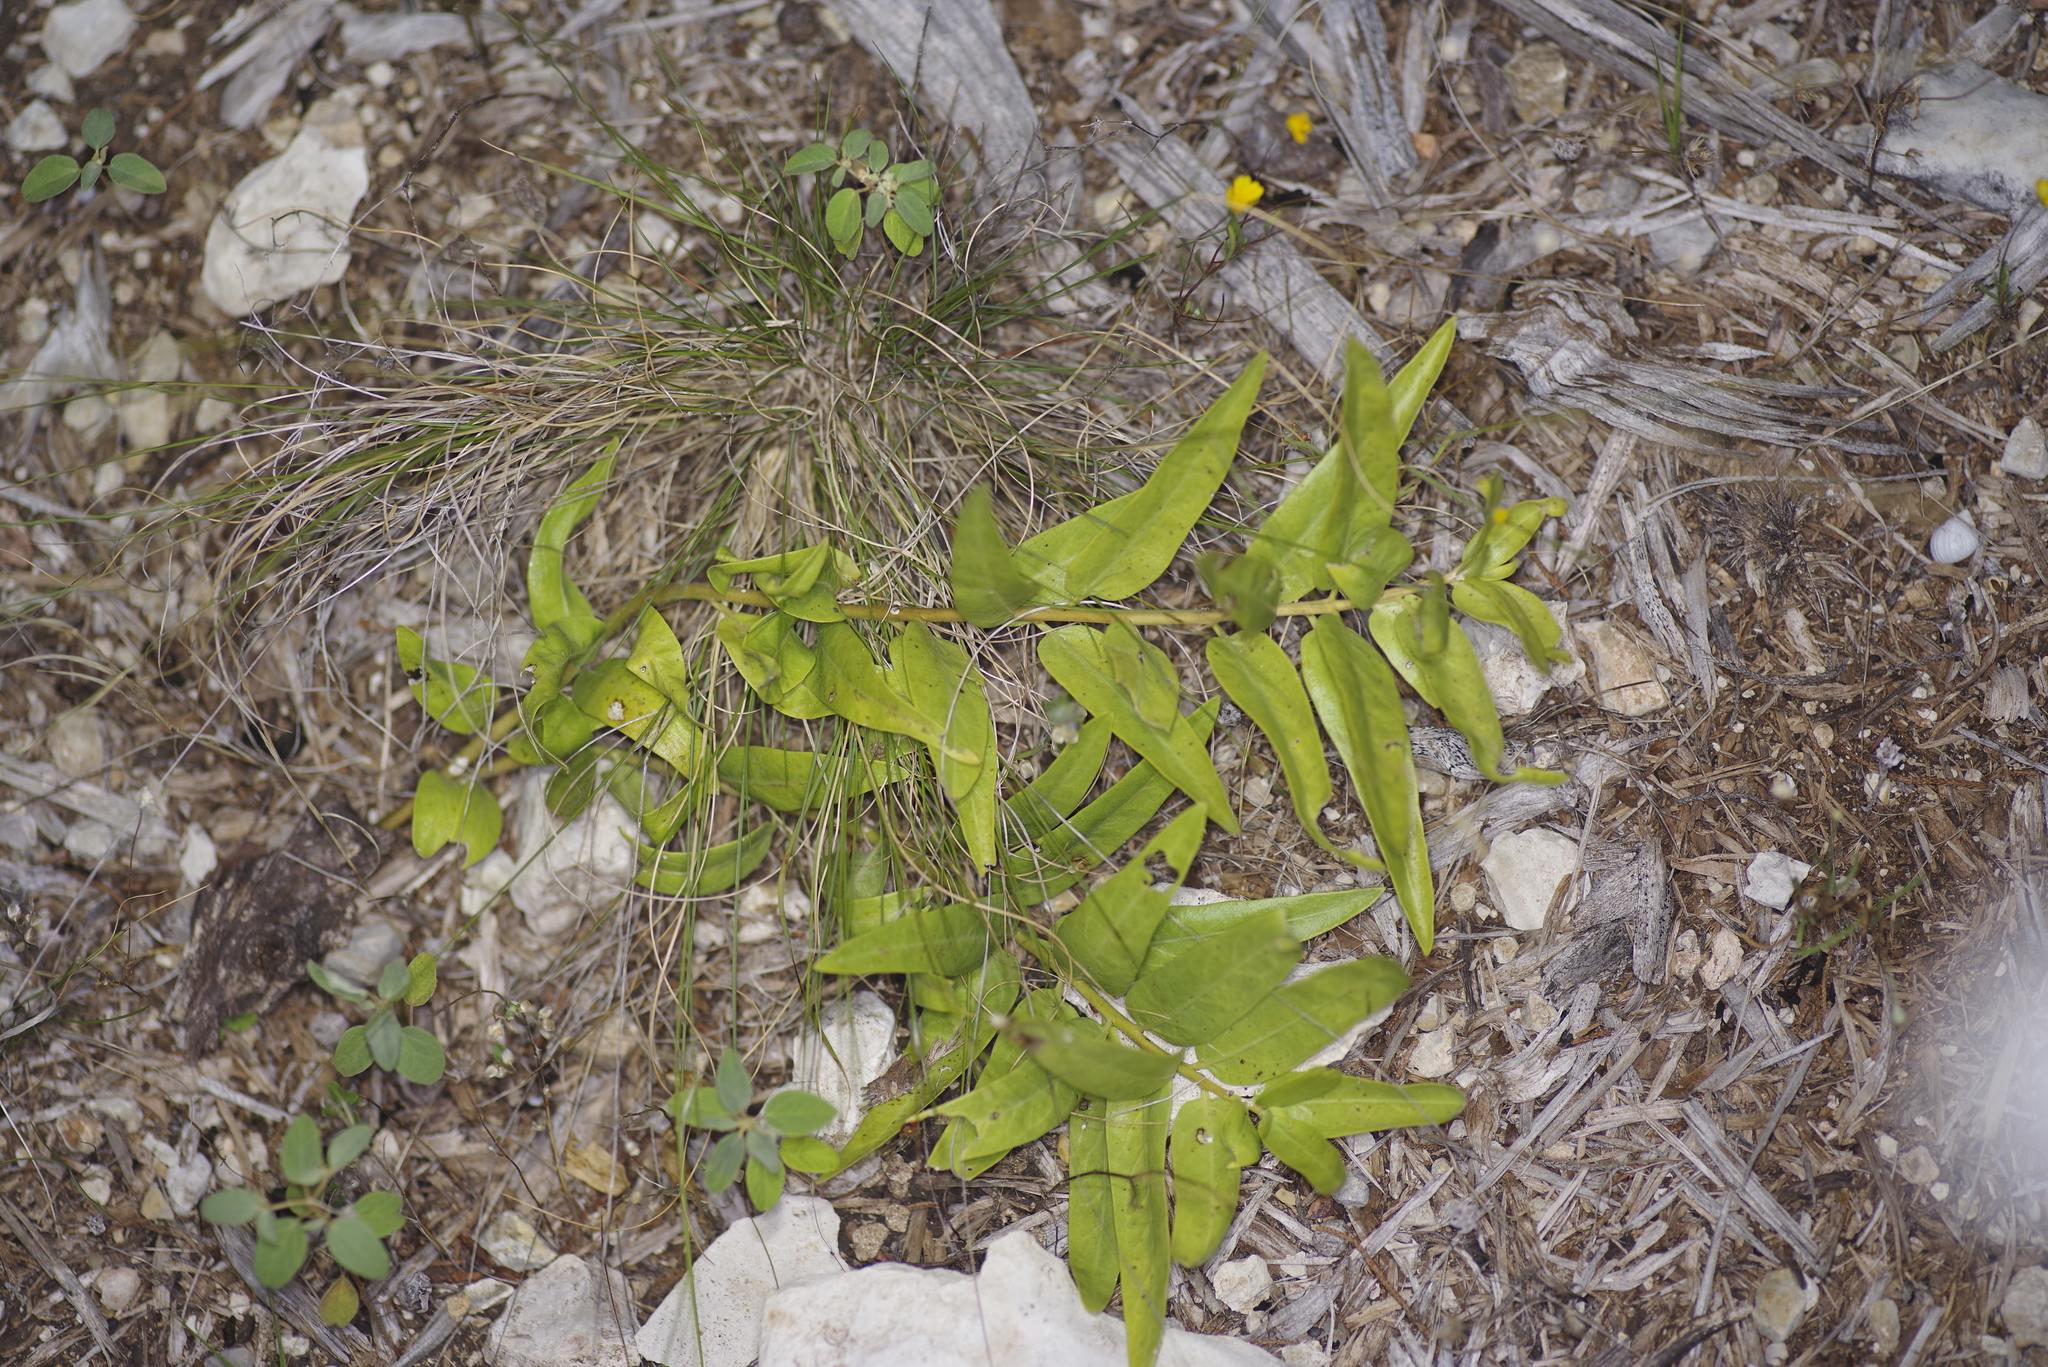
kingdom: Plantae
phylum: Tracheophyta
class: Magnoliopsida
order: Gentianales
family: Apocynaceae
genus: Asclepias
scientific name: Asclepias asperula
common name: Antelope horns
